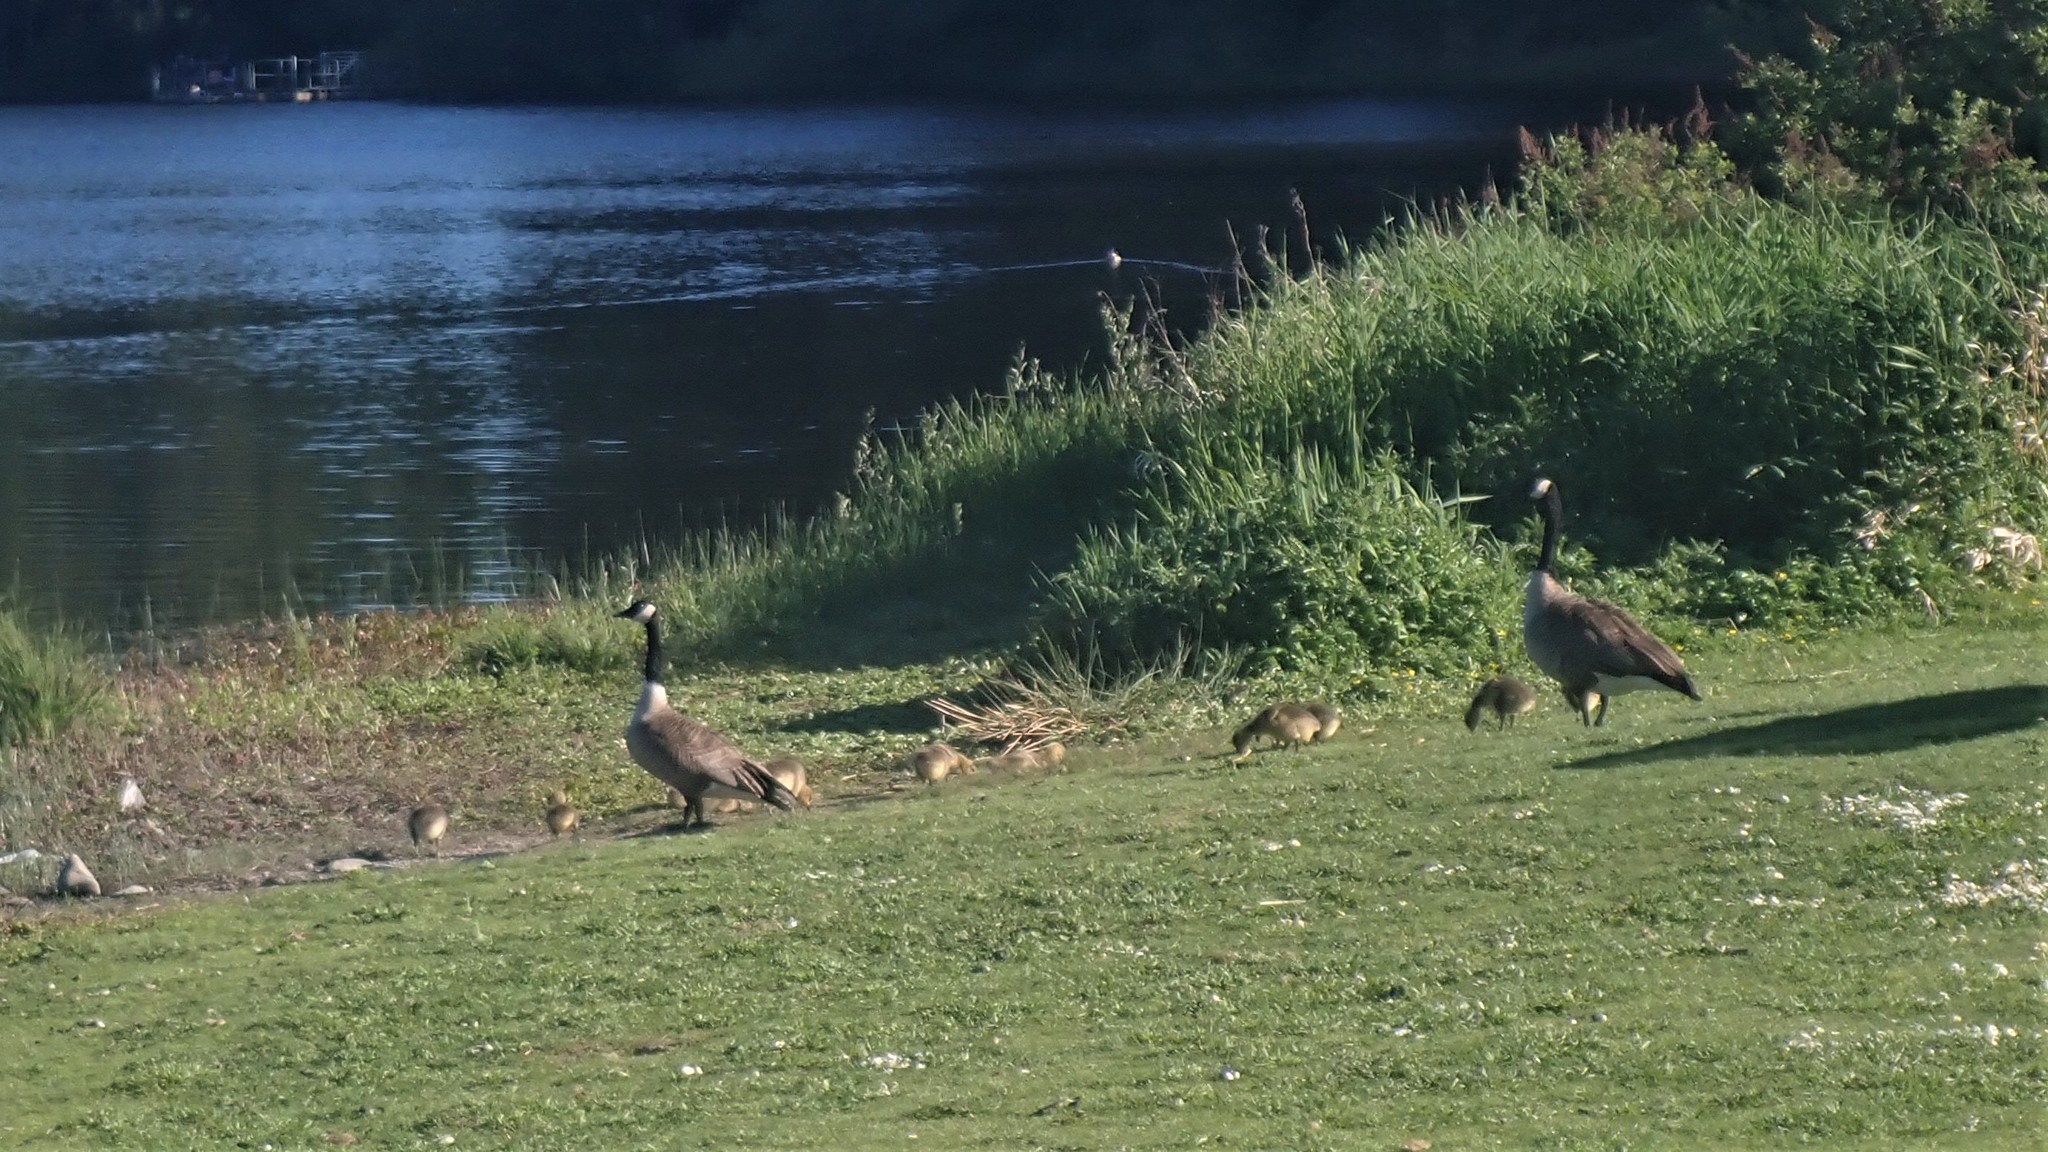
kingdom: Animalia
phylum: Chordata
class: Aves
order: Anseriformes
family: Anatidae
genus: Branta
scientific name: Branta canadensis
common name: Canada goose
